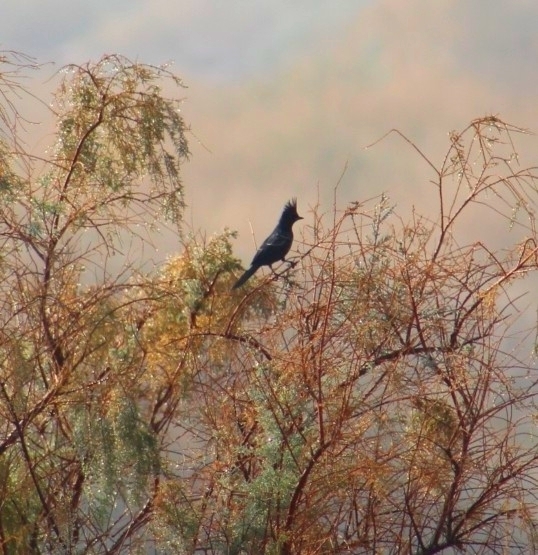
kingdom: Animalia
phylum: Chordata
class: Aves
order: Passeriformes
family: Ptilogonatidae
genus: Phainopepla
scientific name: Phainopepla nitens
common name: Phainopepla
